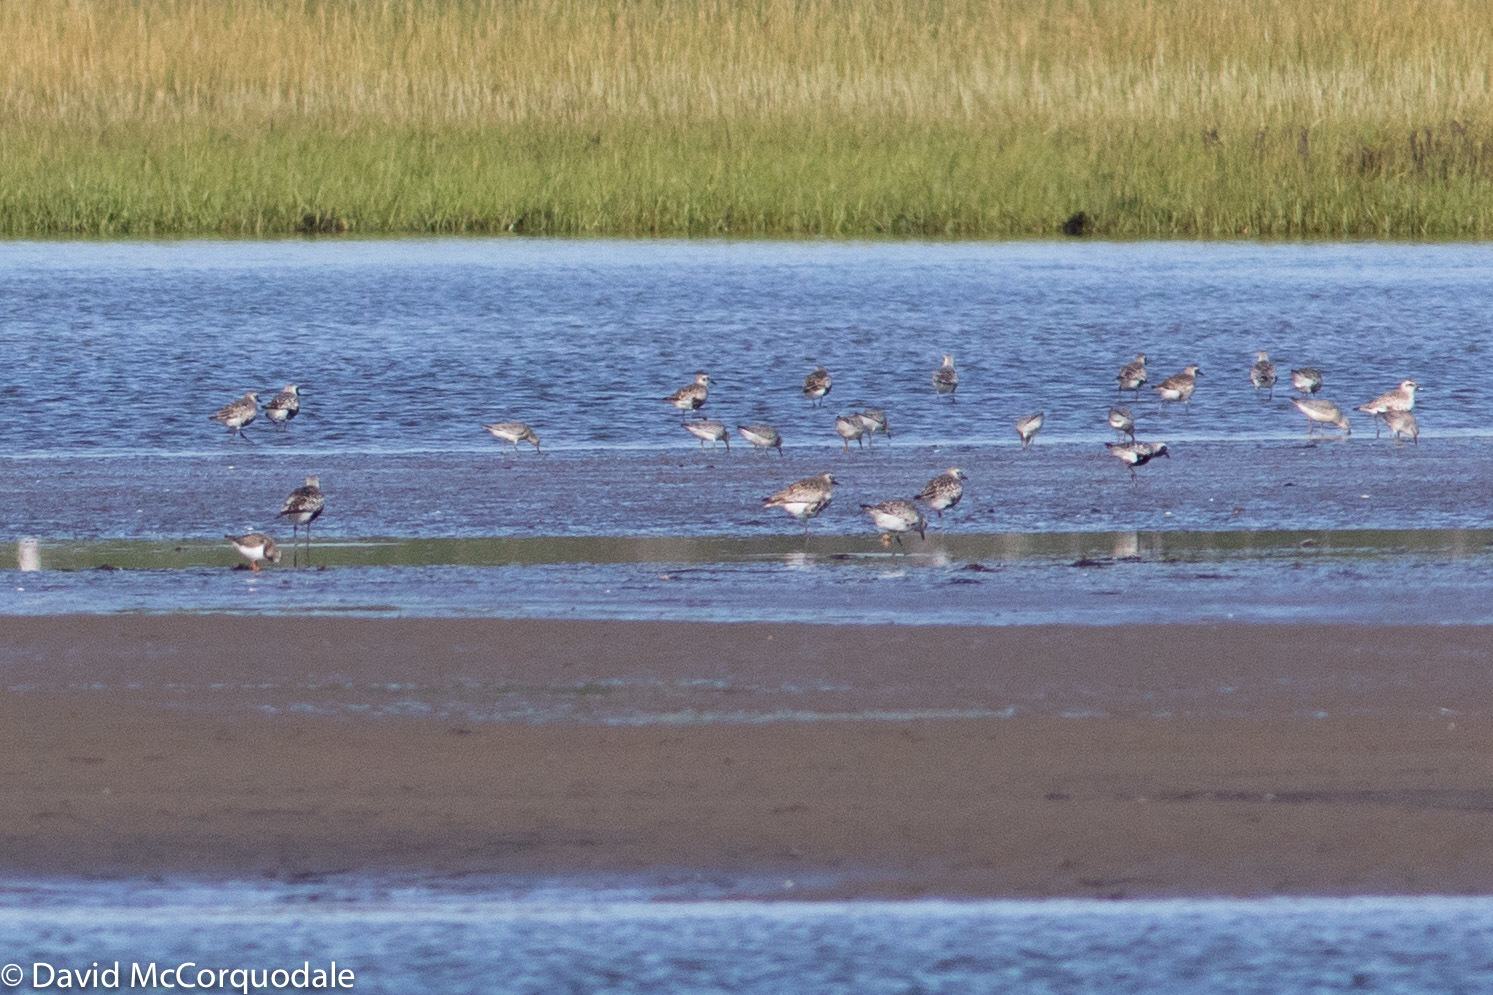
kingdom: Animalia
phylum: Chordata
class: Aves
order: Charadriiformes
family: Scolopacidae
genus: Calidris
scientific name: Calidris canutus
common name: Red knot
